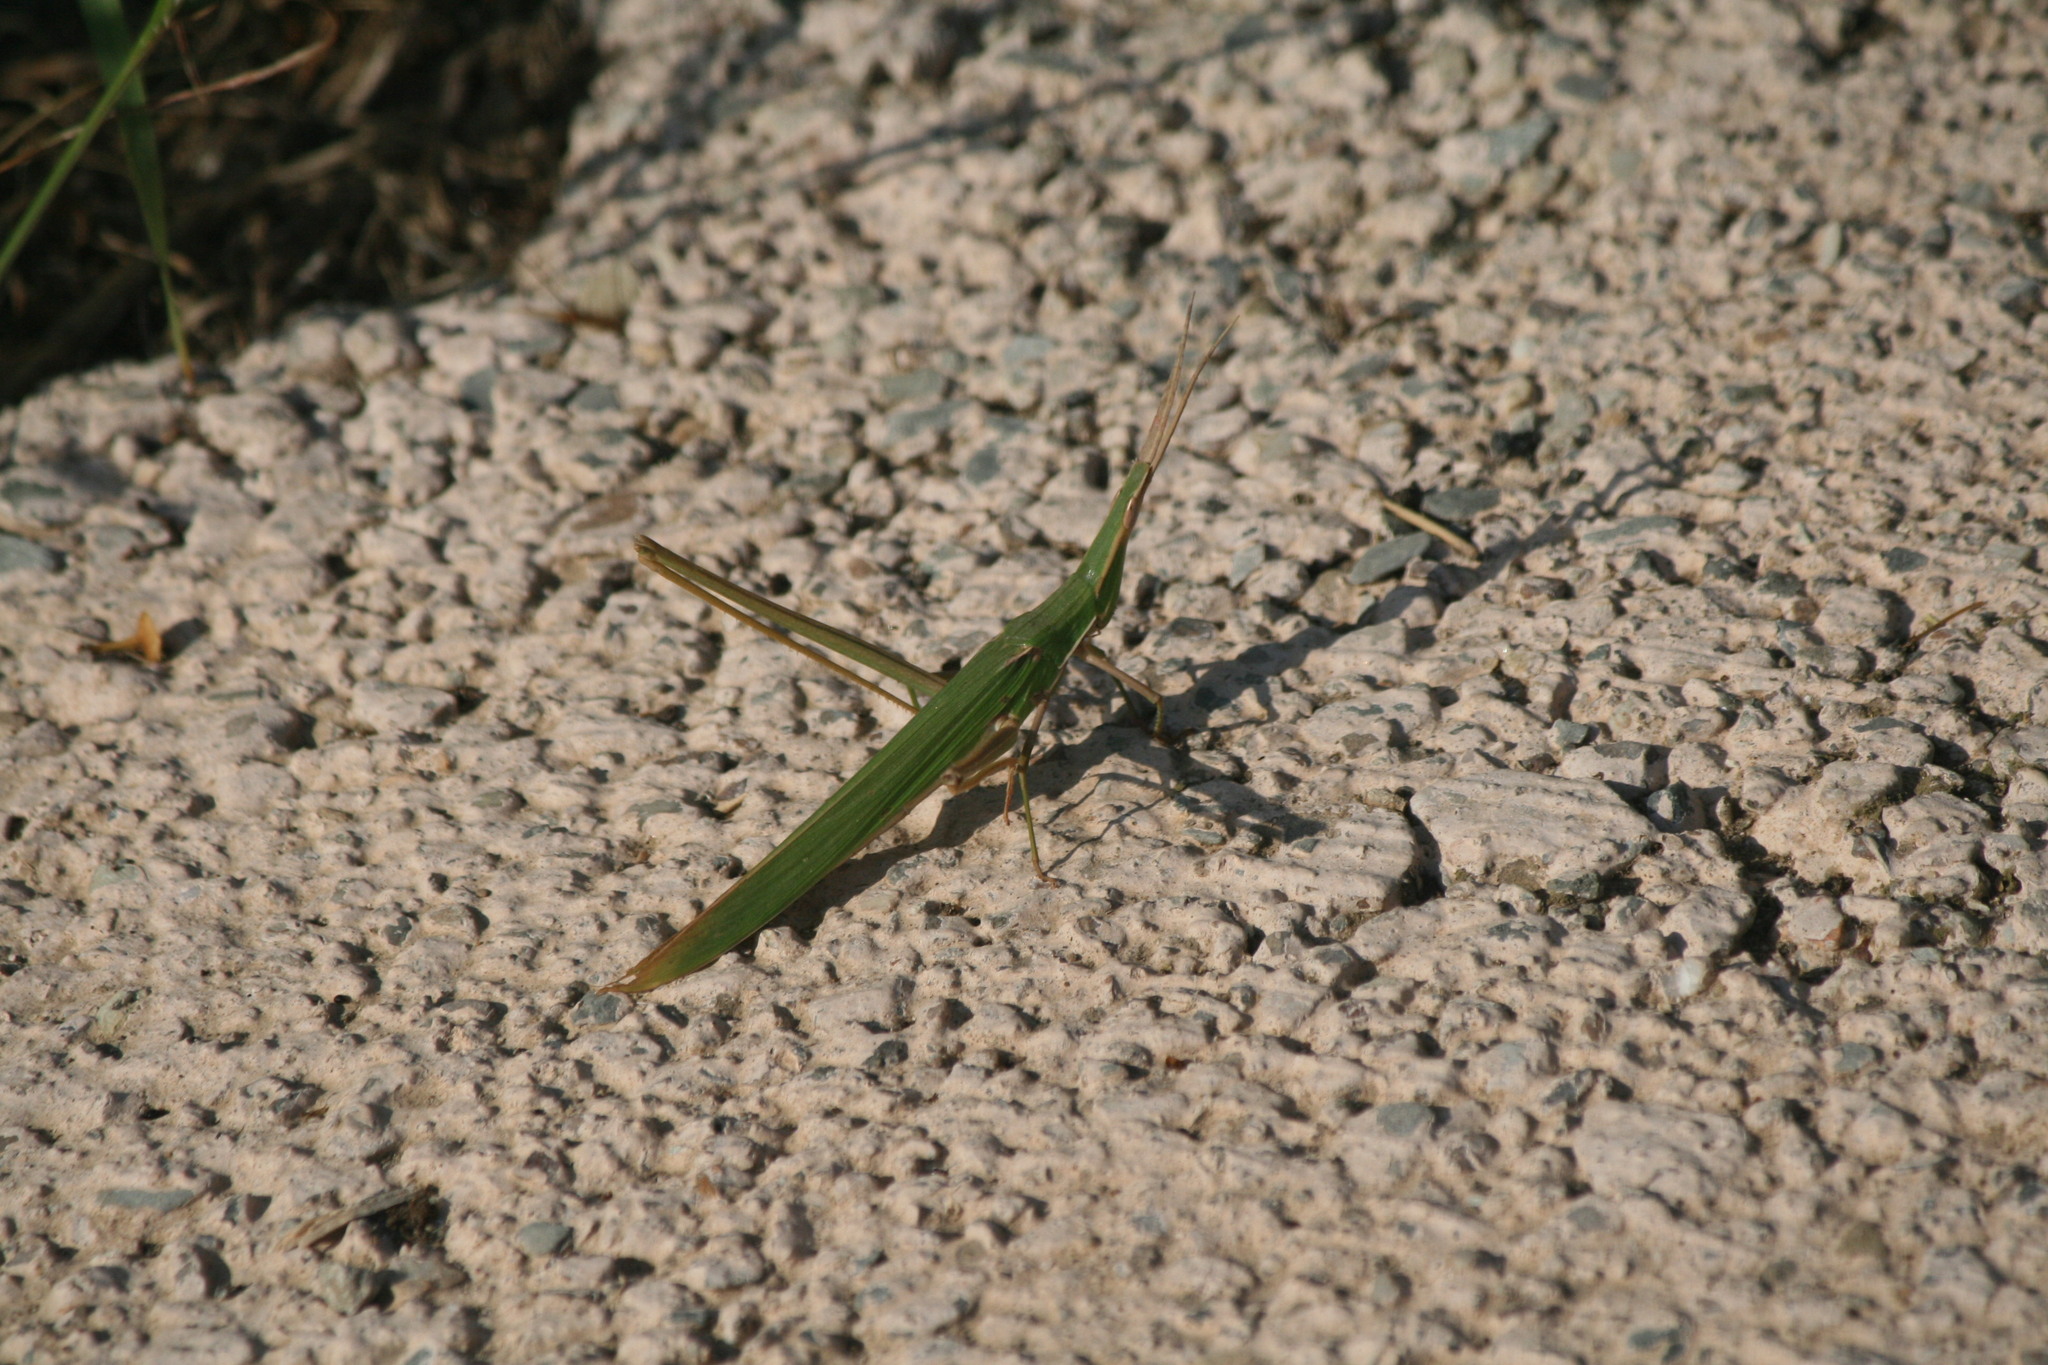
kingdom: Animalia
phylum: Arthropoda
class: Insecta
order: Orthoptera
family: Acrididae
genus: Acrida
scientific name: Acrida ungarica
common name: Common cone-headed grasshopper
